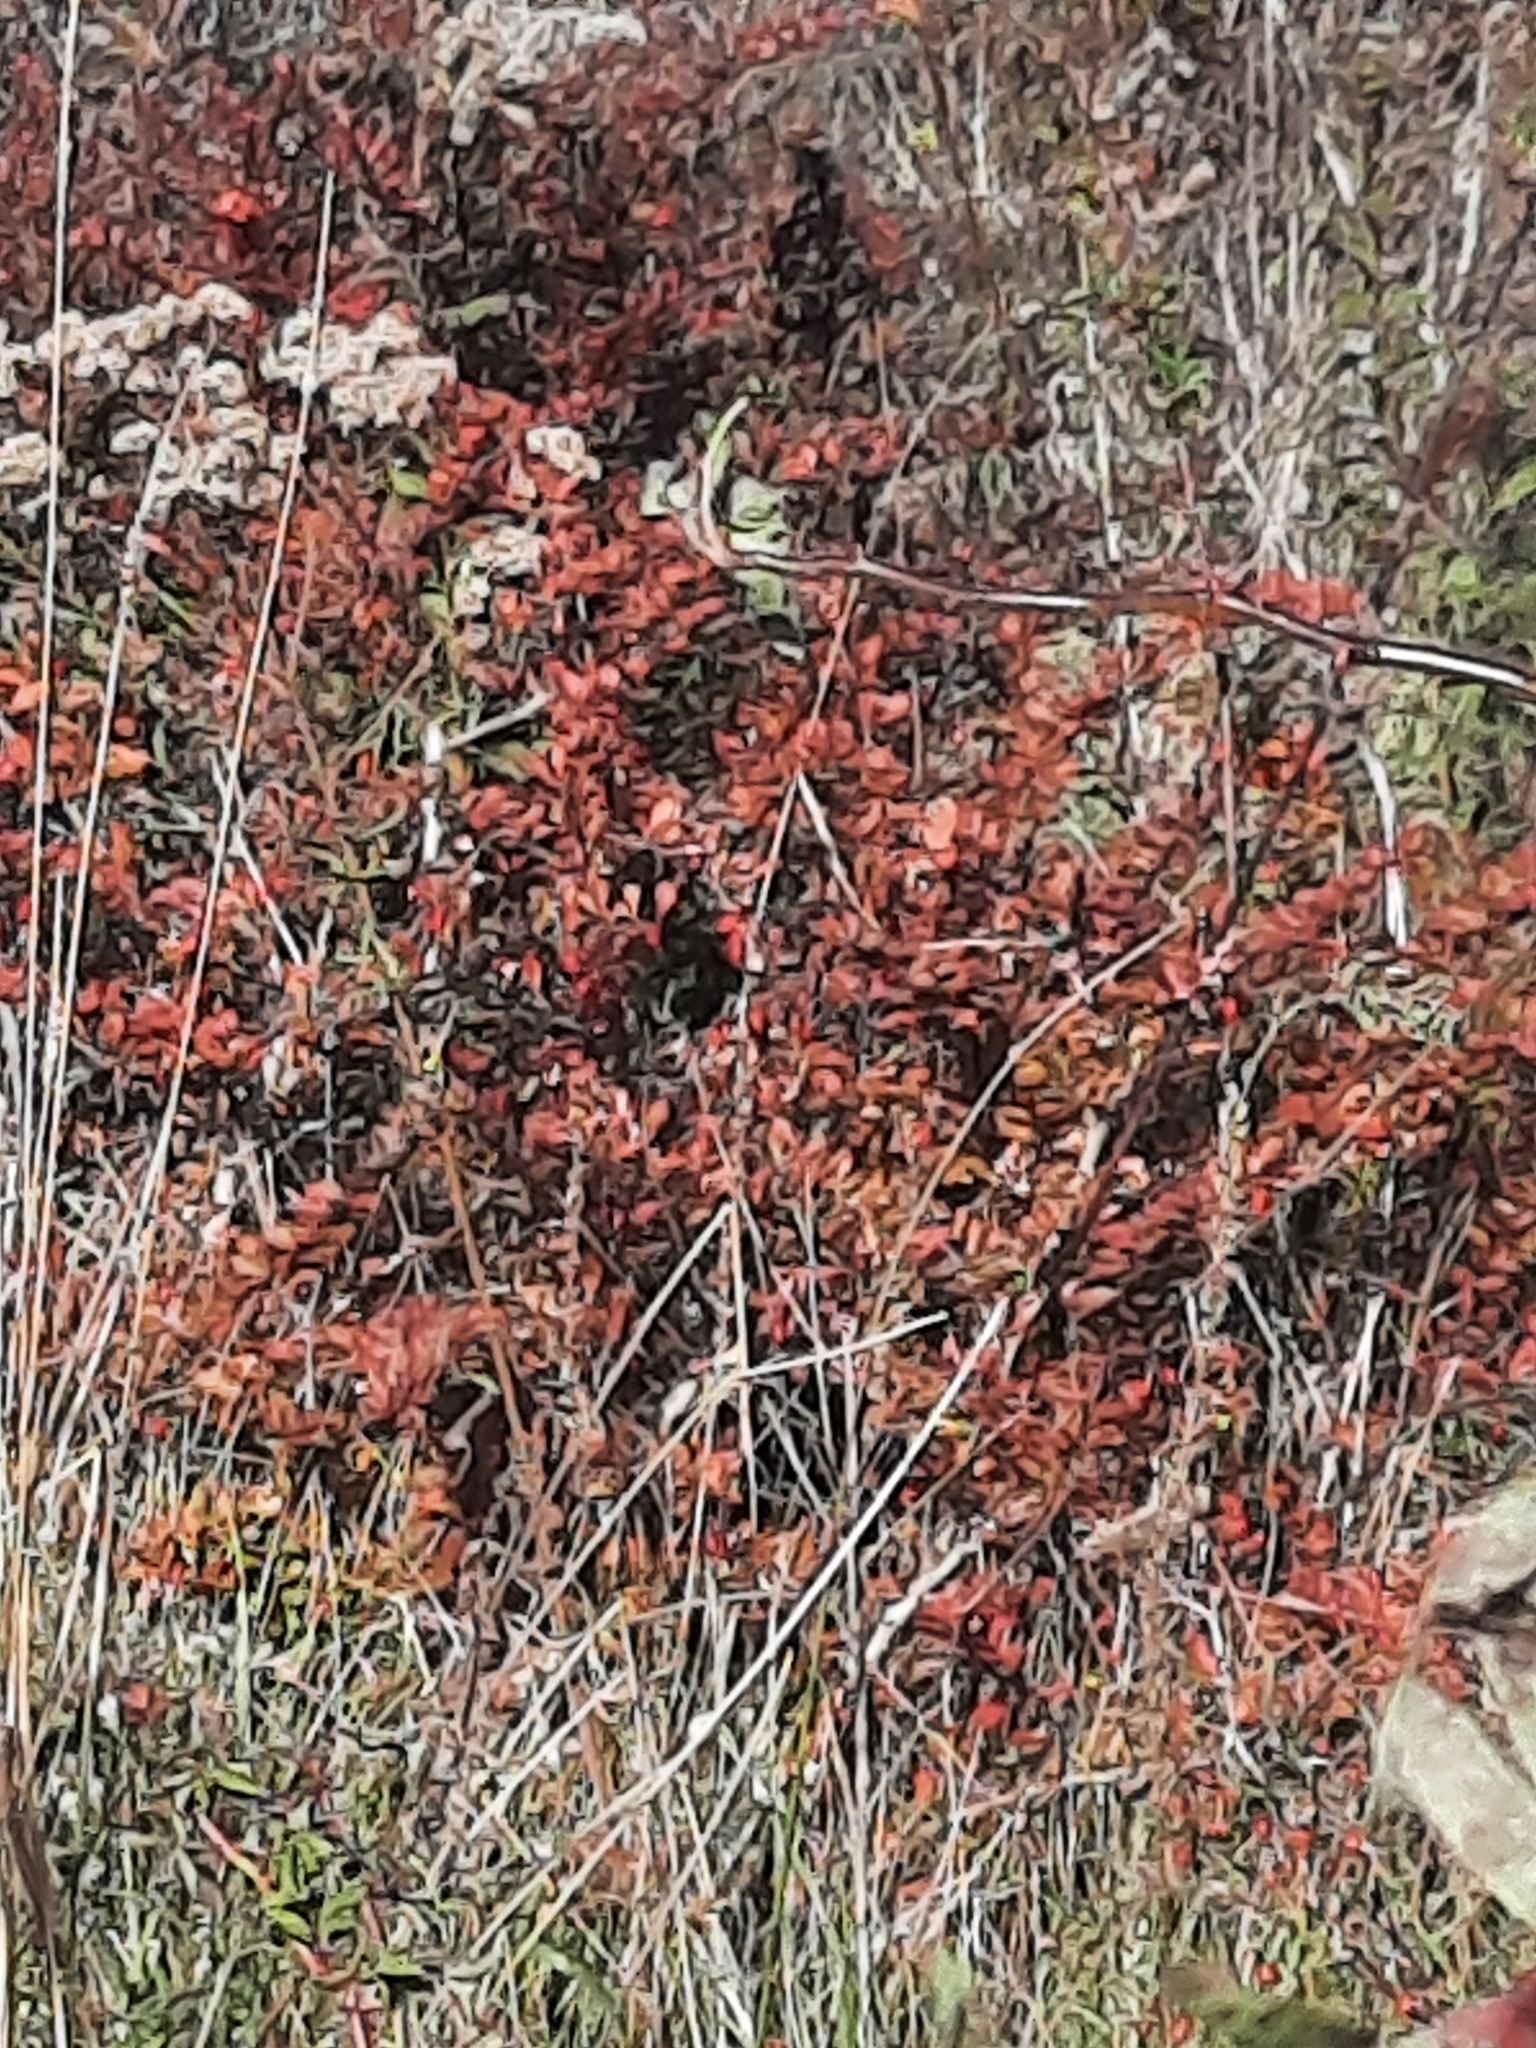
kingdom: Plantae
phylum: Tracheophyta
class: Magnoliopsida
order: Ranunculales
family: Berberidaceae
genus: Berberis
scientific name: Berberis thunbergii
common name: Japanese barberry
